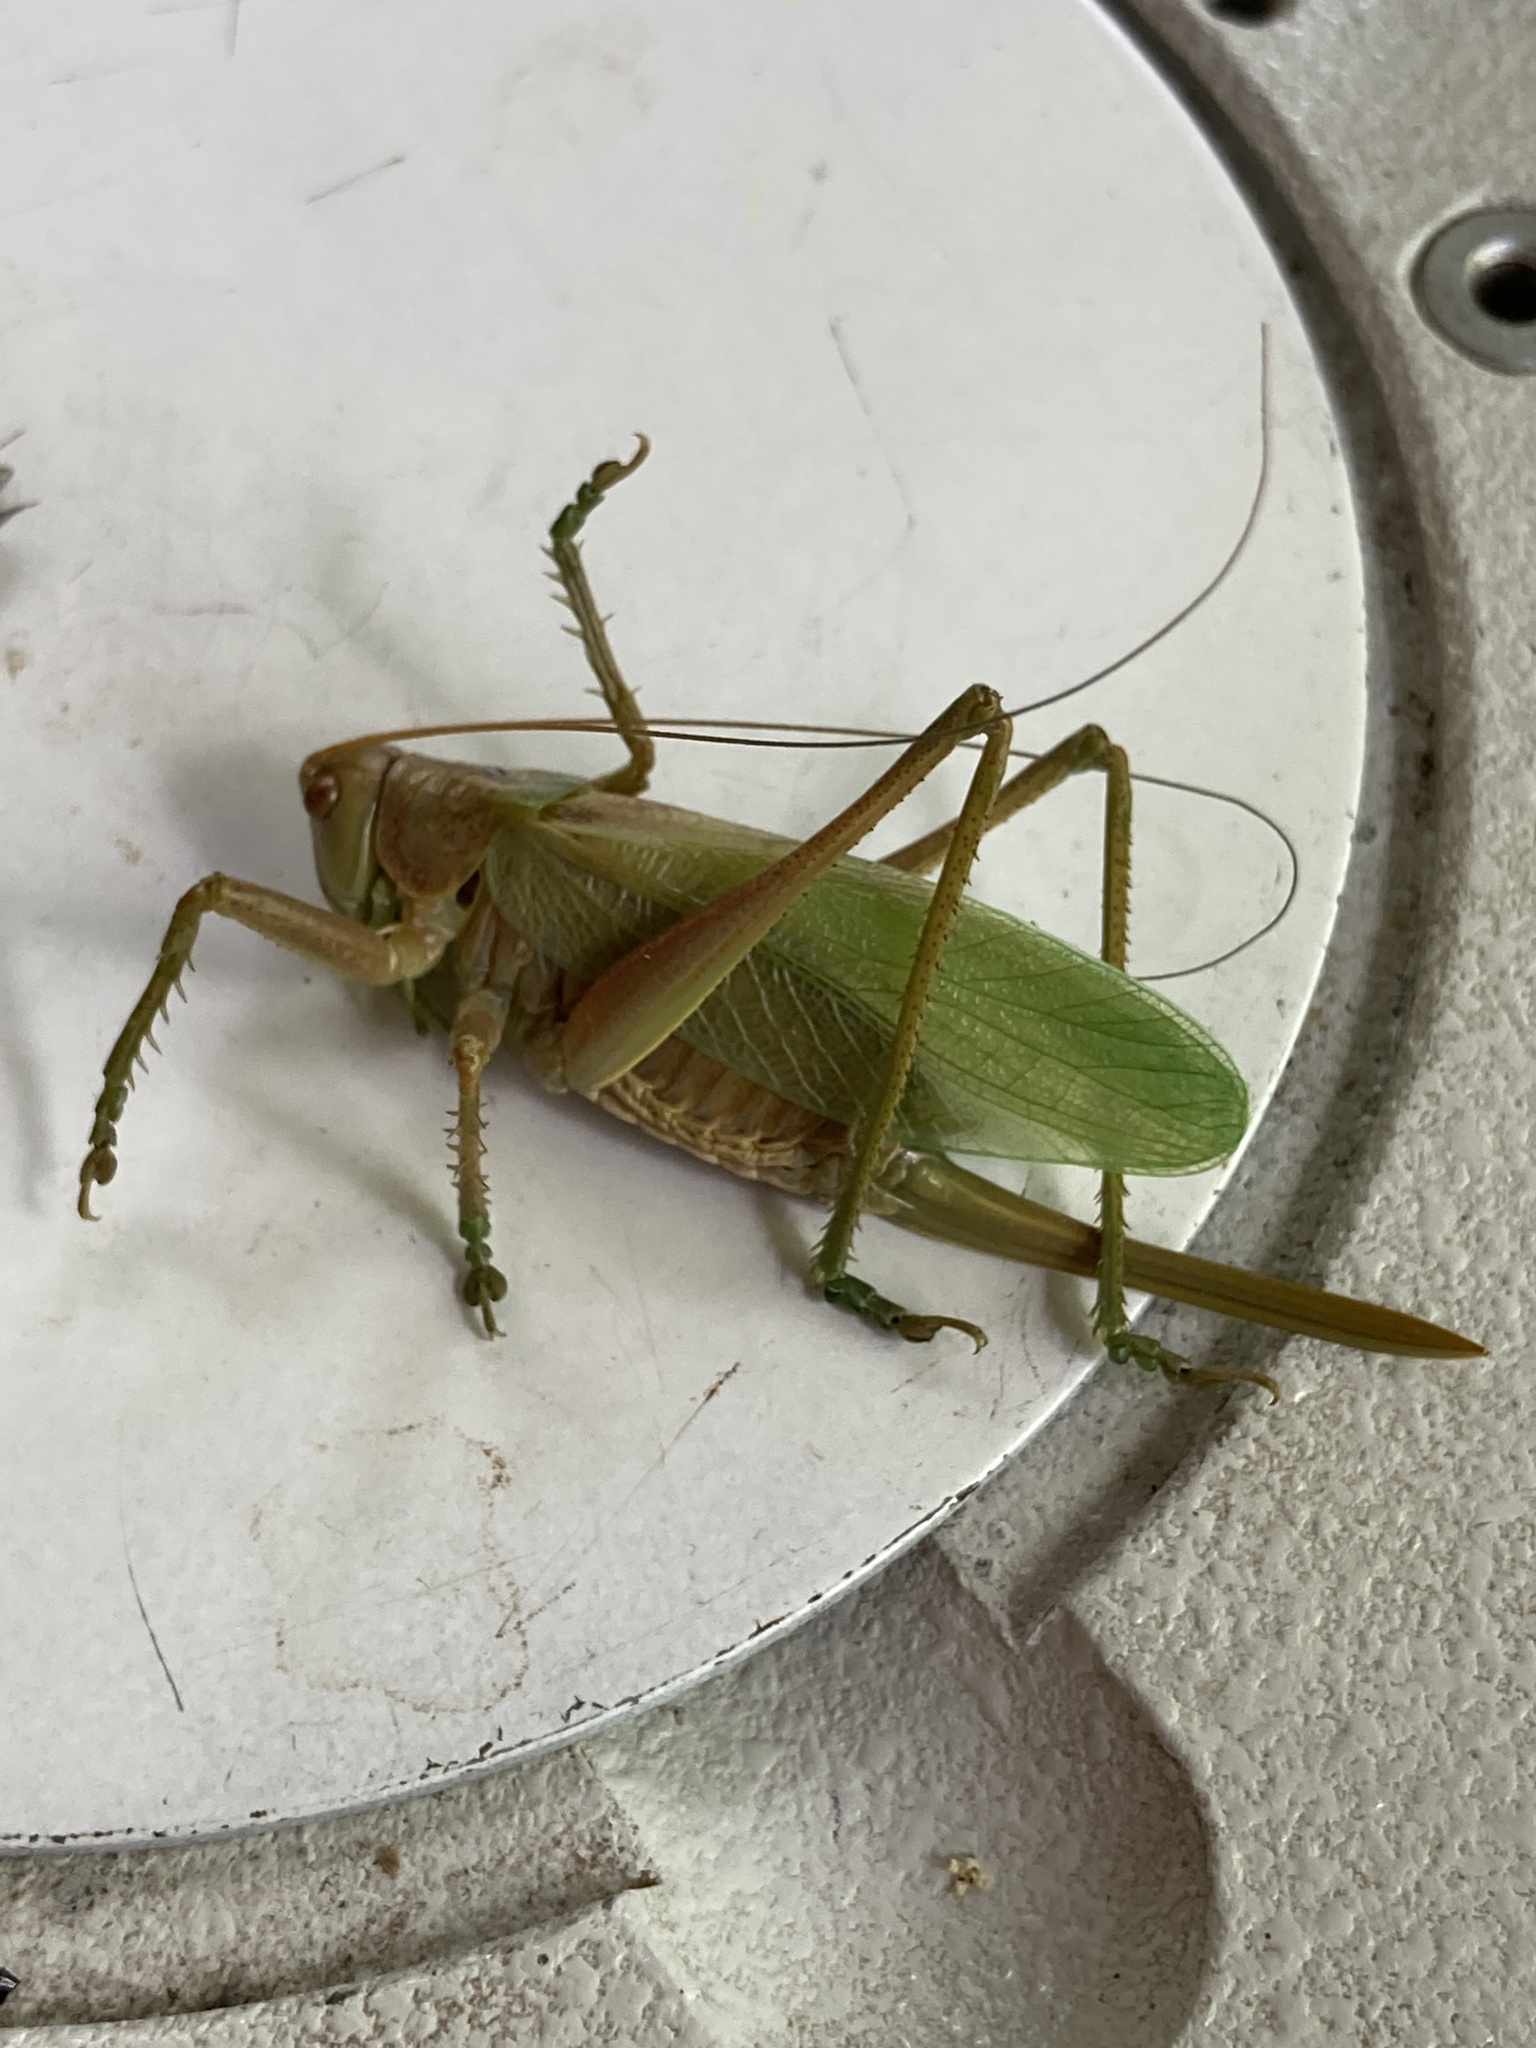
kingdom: Animalia
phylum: Arthropoda
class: Insecta
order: Orthoptera
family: Tettigoniidae
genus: Tettigonia
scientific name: Tettigonia cantans
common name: Upland green bush-cricket
